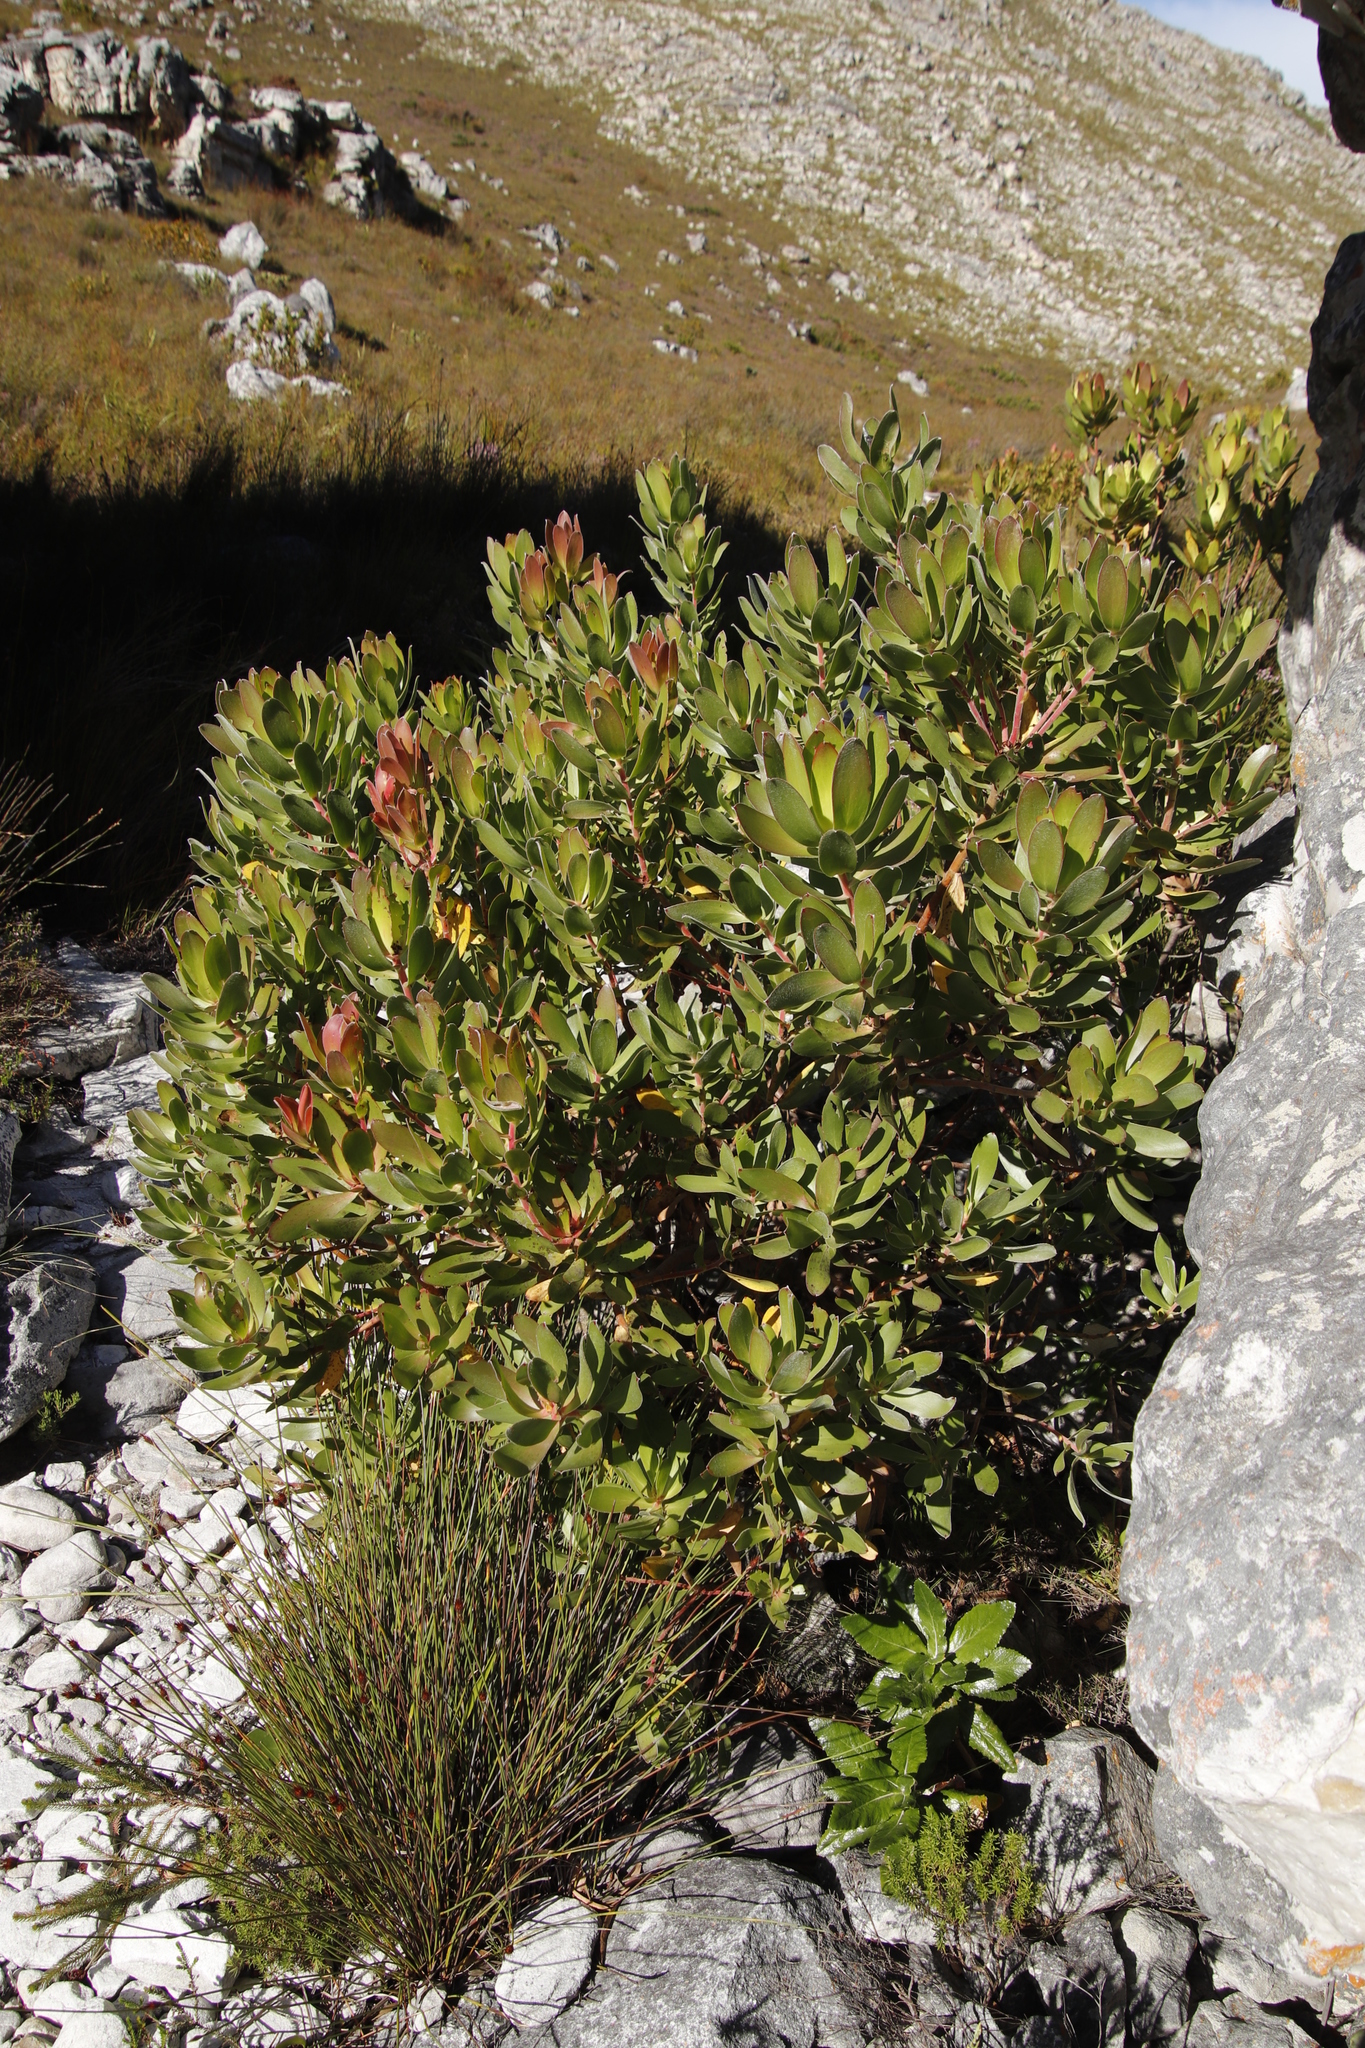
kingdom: Plantae
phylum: Tracheophyta
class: Magnoliopsida
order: Proteales
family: Proteaceae
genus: Leucadendron
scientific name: Leucadendron gandogeri
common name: Broad-leaf conebush
